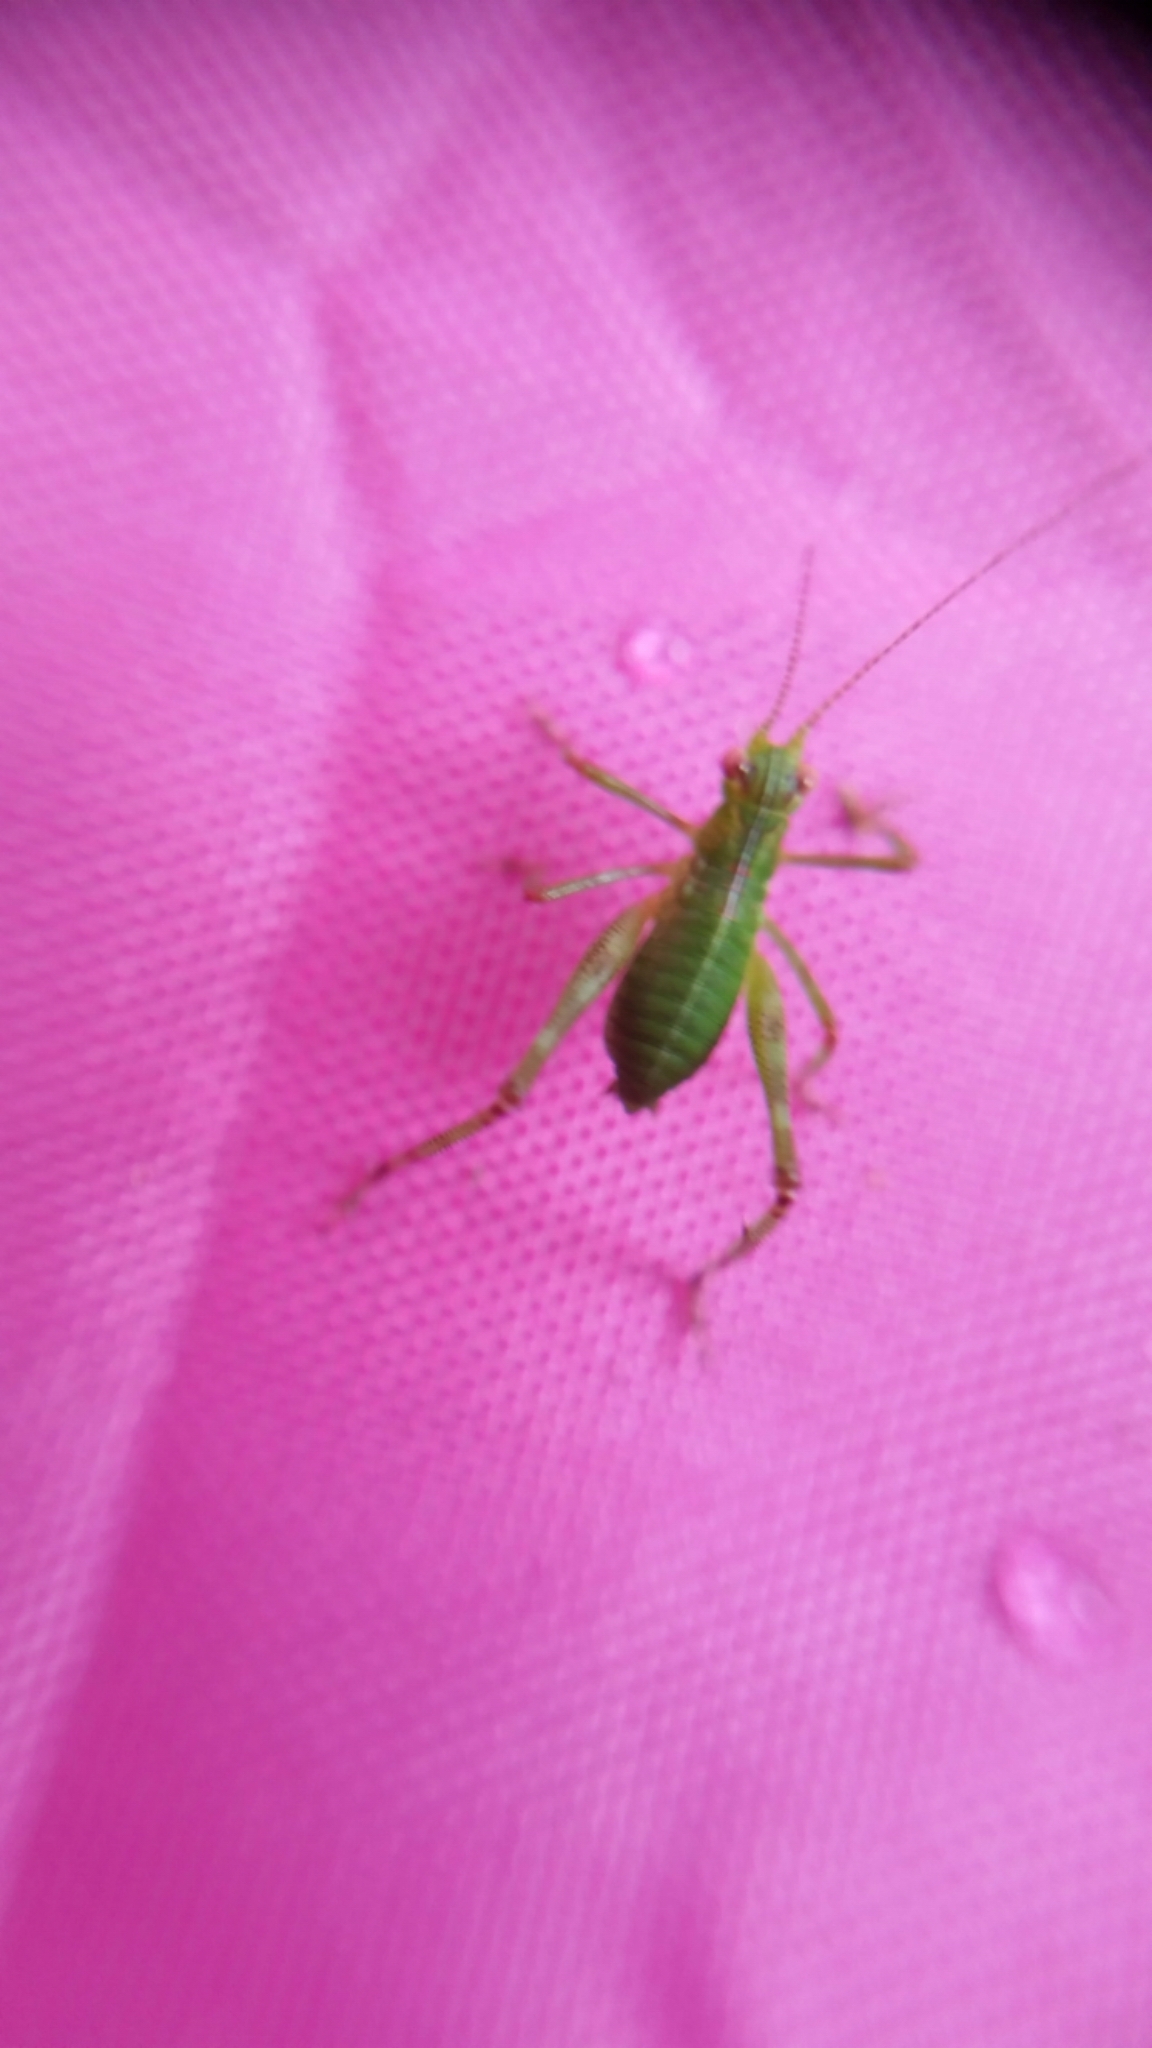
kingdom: Animalia
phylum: Arthropoda
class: Insecta
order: Orthoptera
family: Tettigoniidae
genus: Caedicia
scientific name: Caedicia simplex
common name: Common garden katydid
